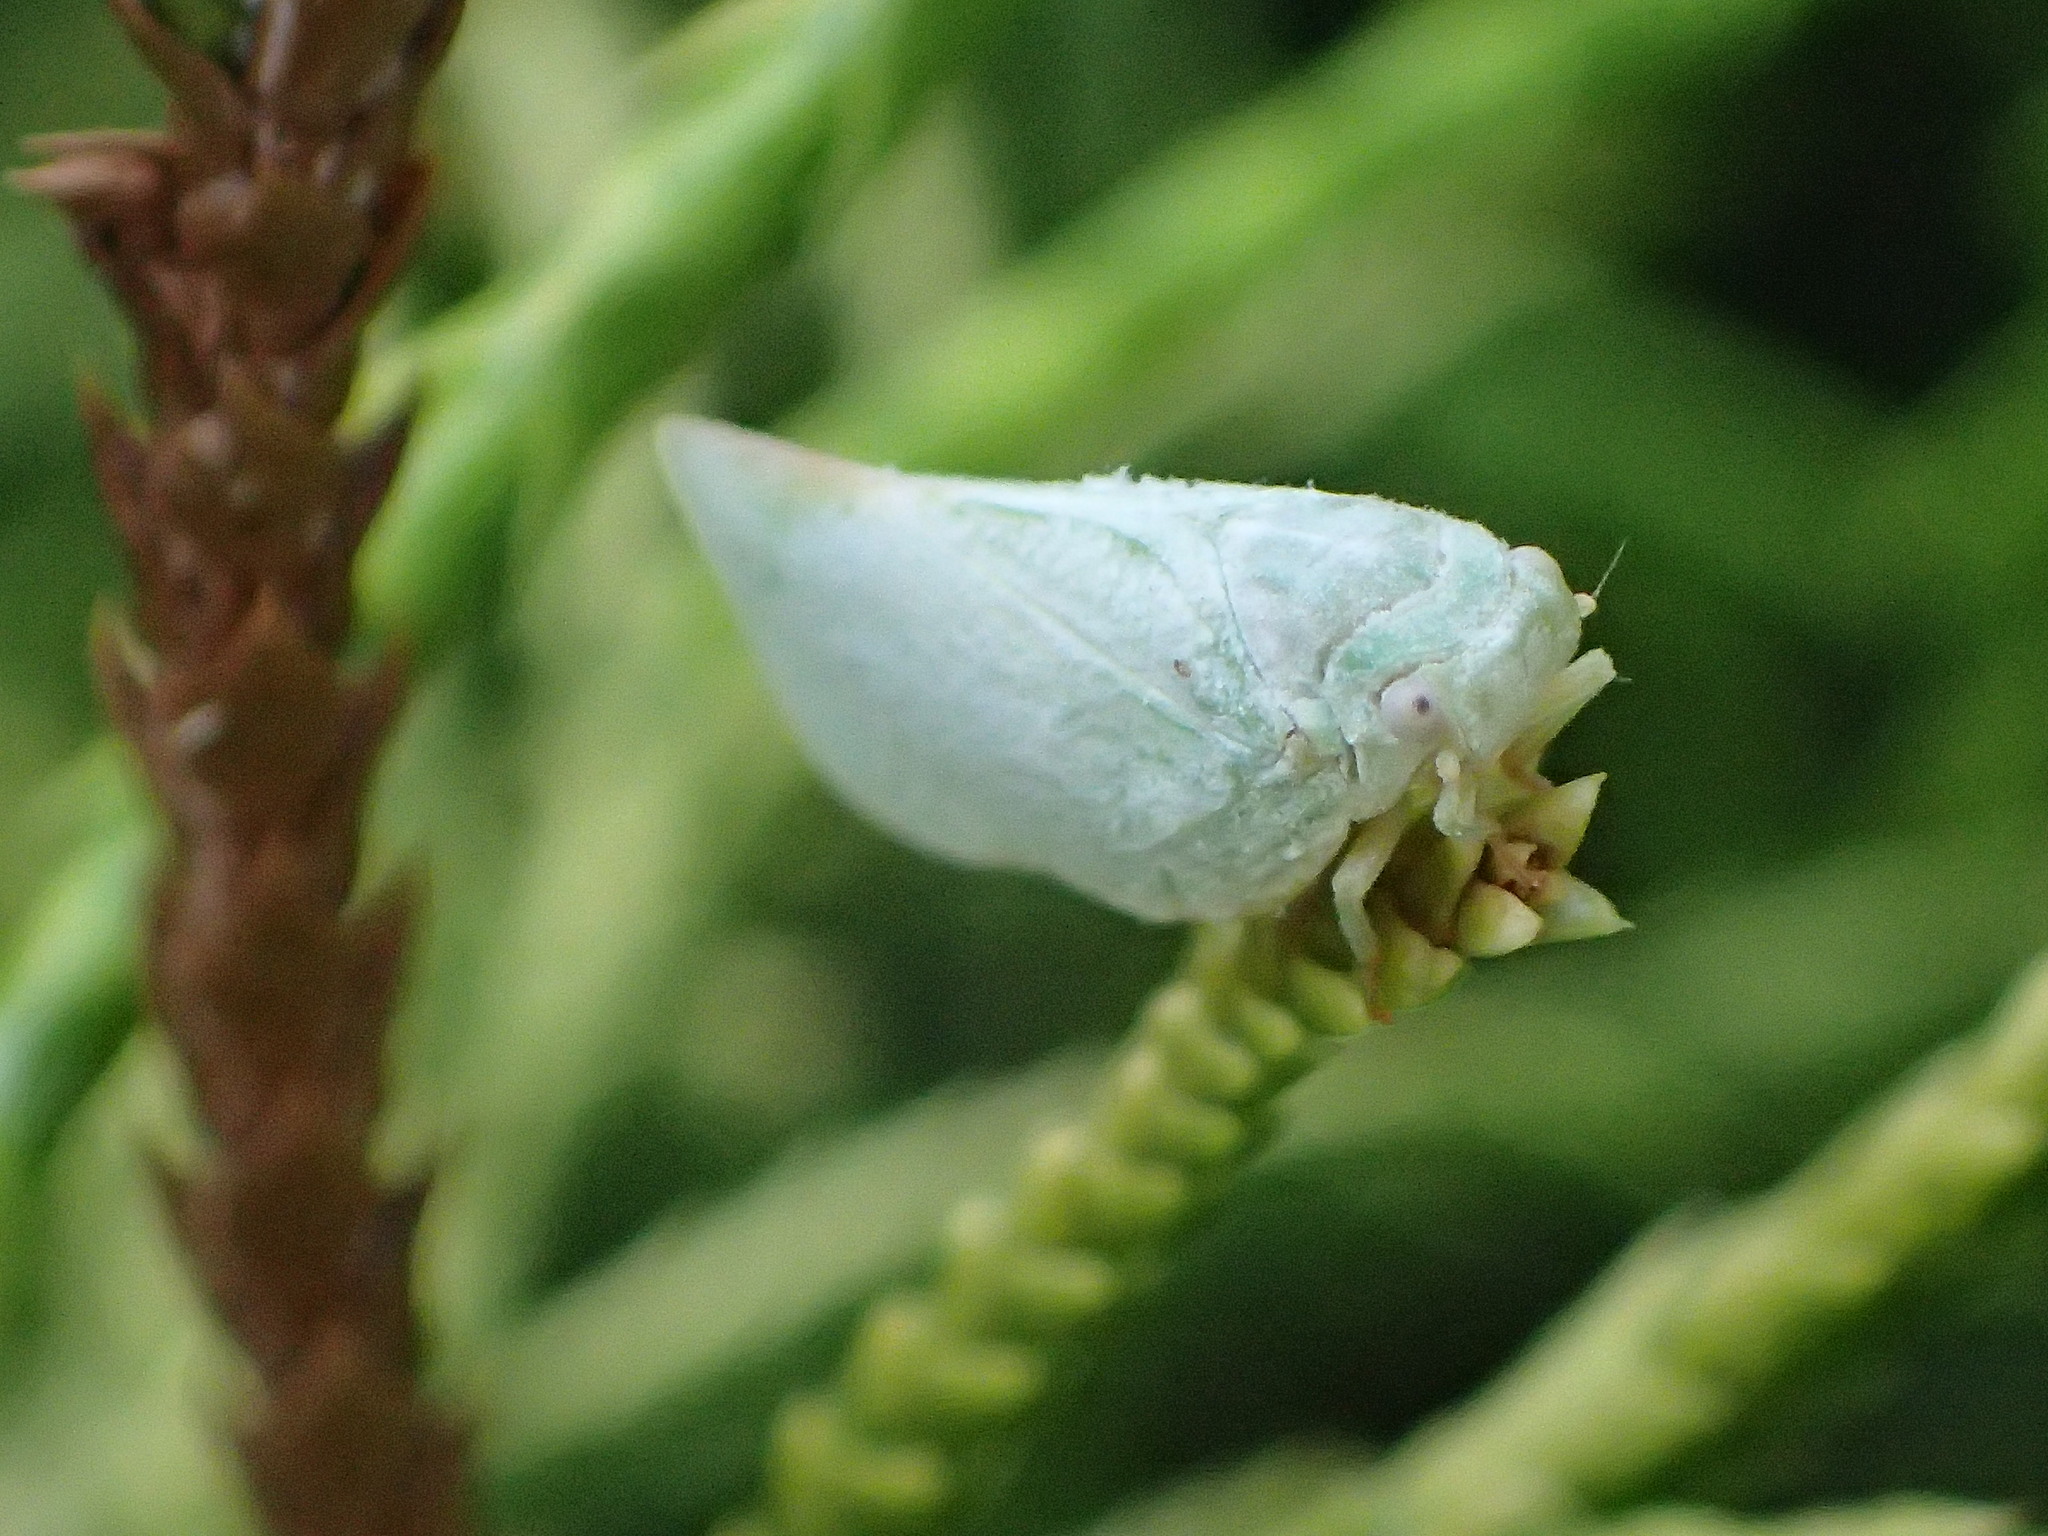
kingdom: Animalia
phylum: Arthropoda
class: Insecta
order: Hemiptera
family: Flatidae
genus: Flatormenis
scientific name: Flatormenis proxima
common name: Northern flatid planthopper
